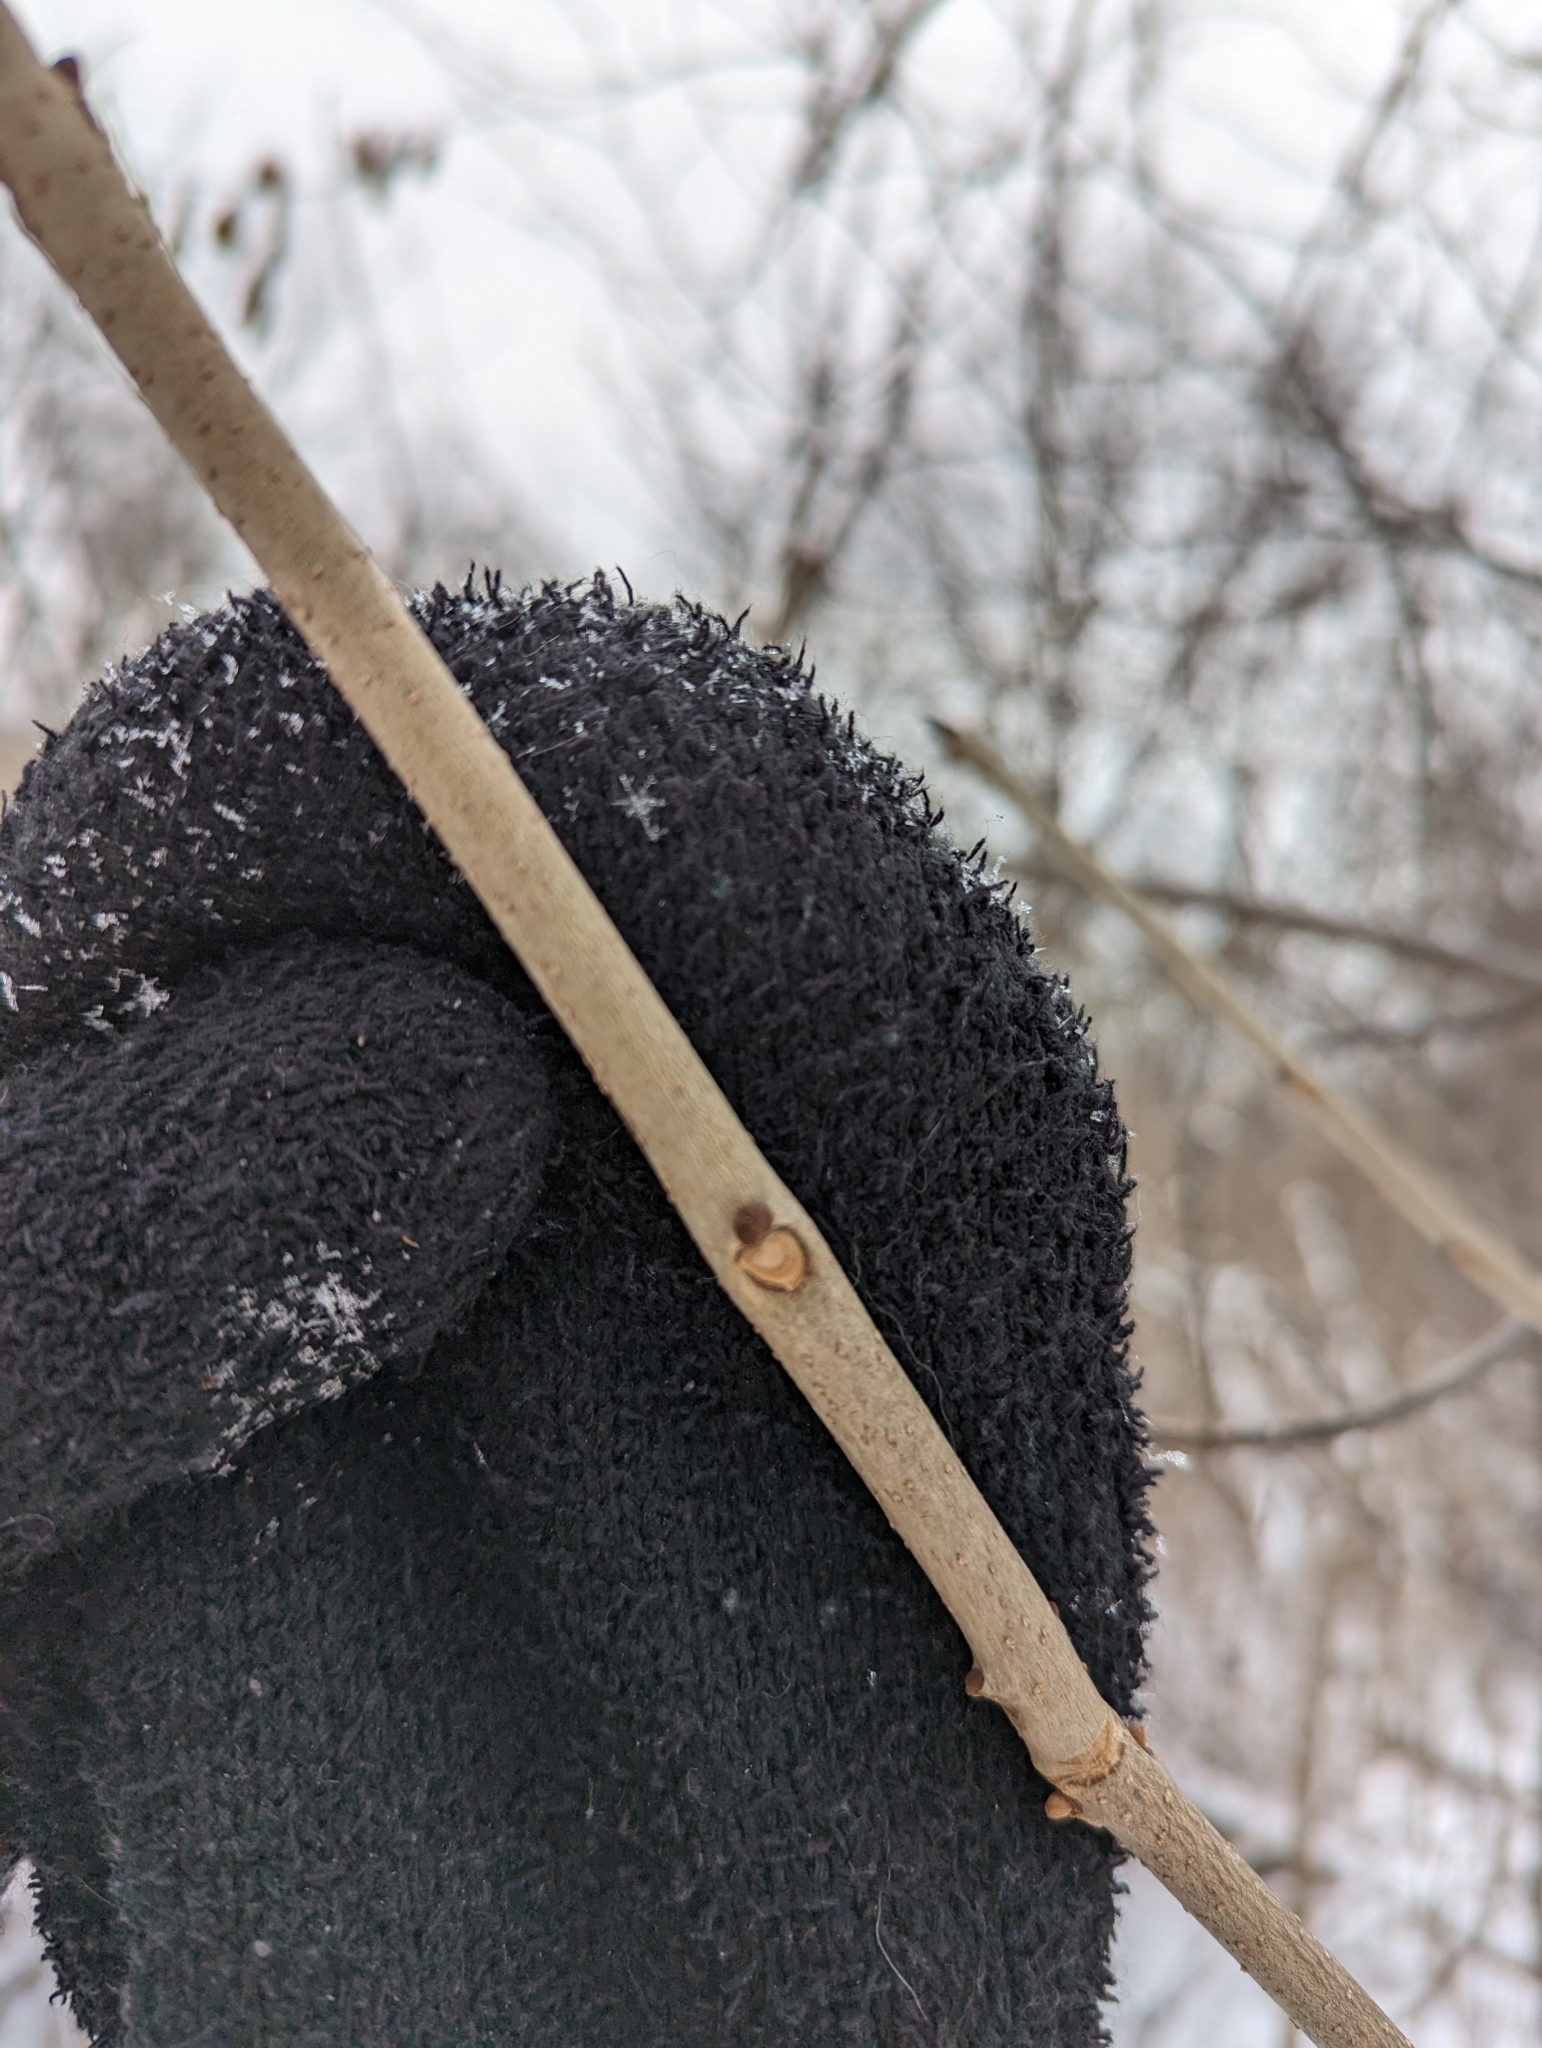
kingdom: Plantae
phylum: Tracheophyta
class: Magnoliopsida
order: Lamiales
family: Oleaceae
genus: Fraxinus
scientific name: Fraxinus nigra
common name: Black ash
